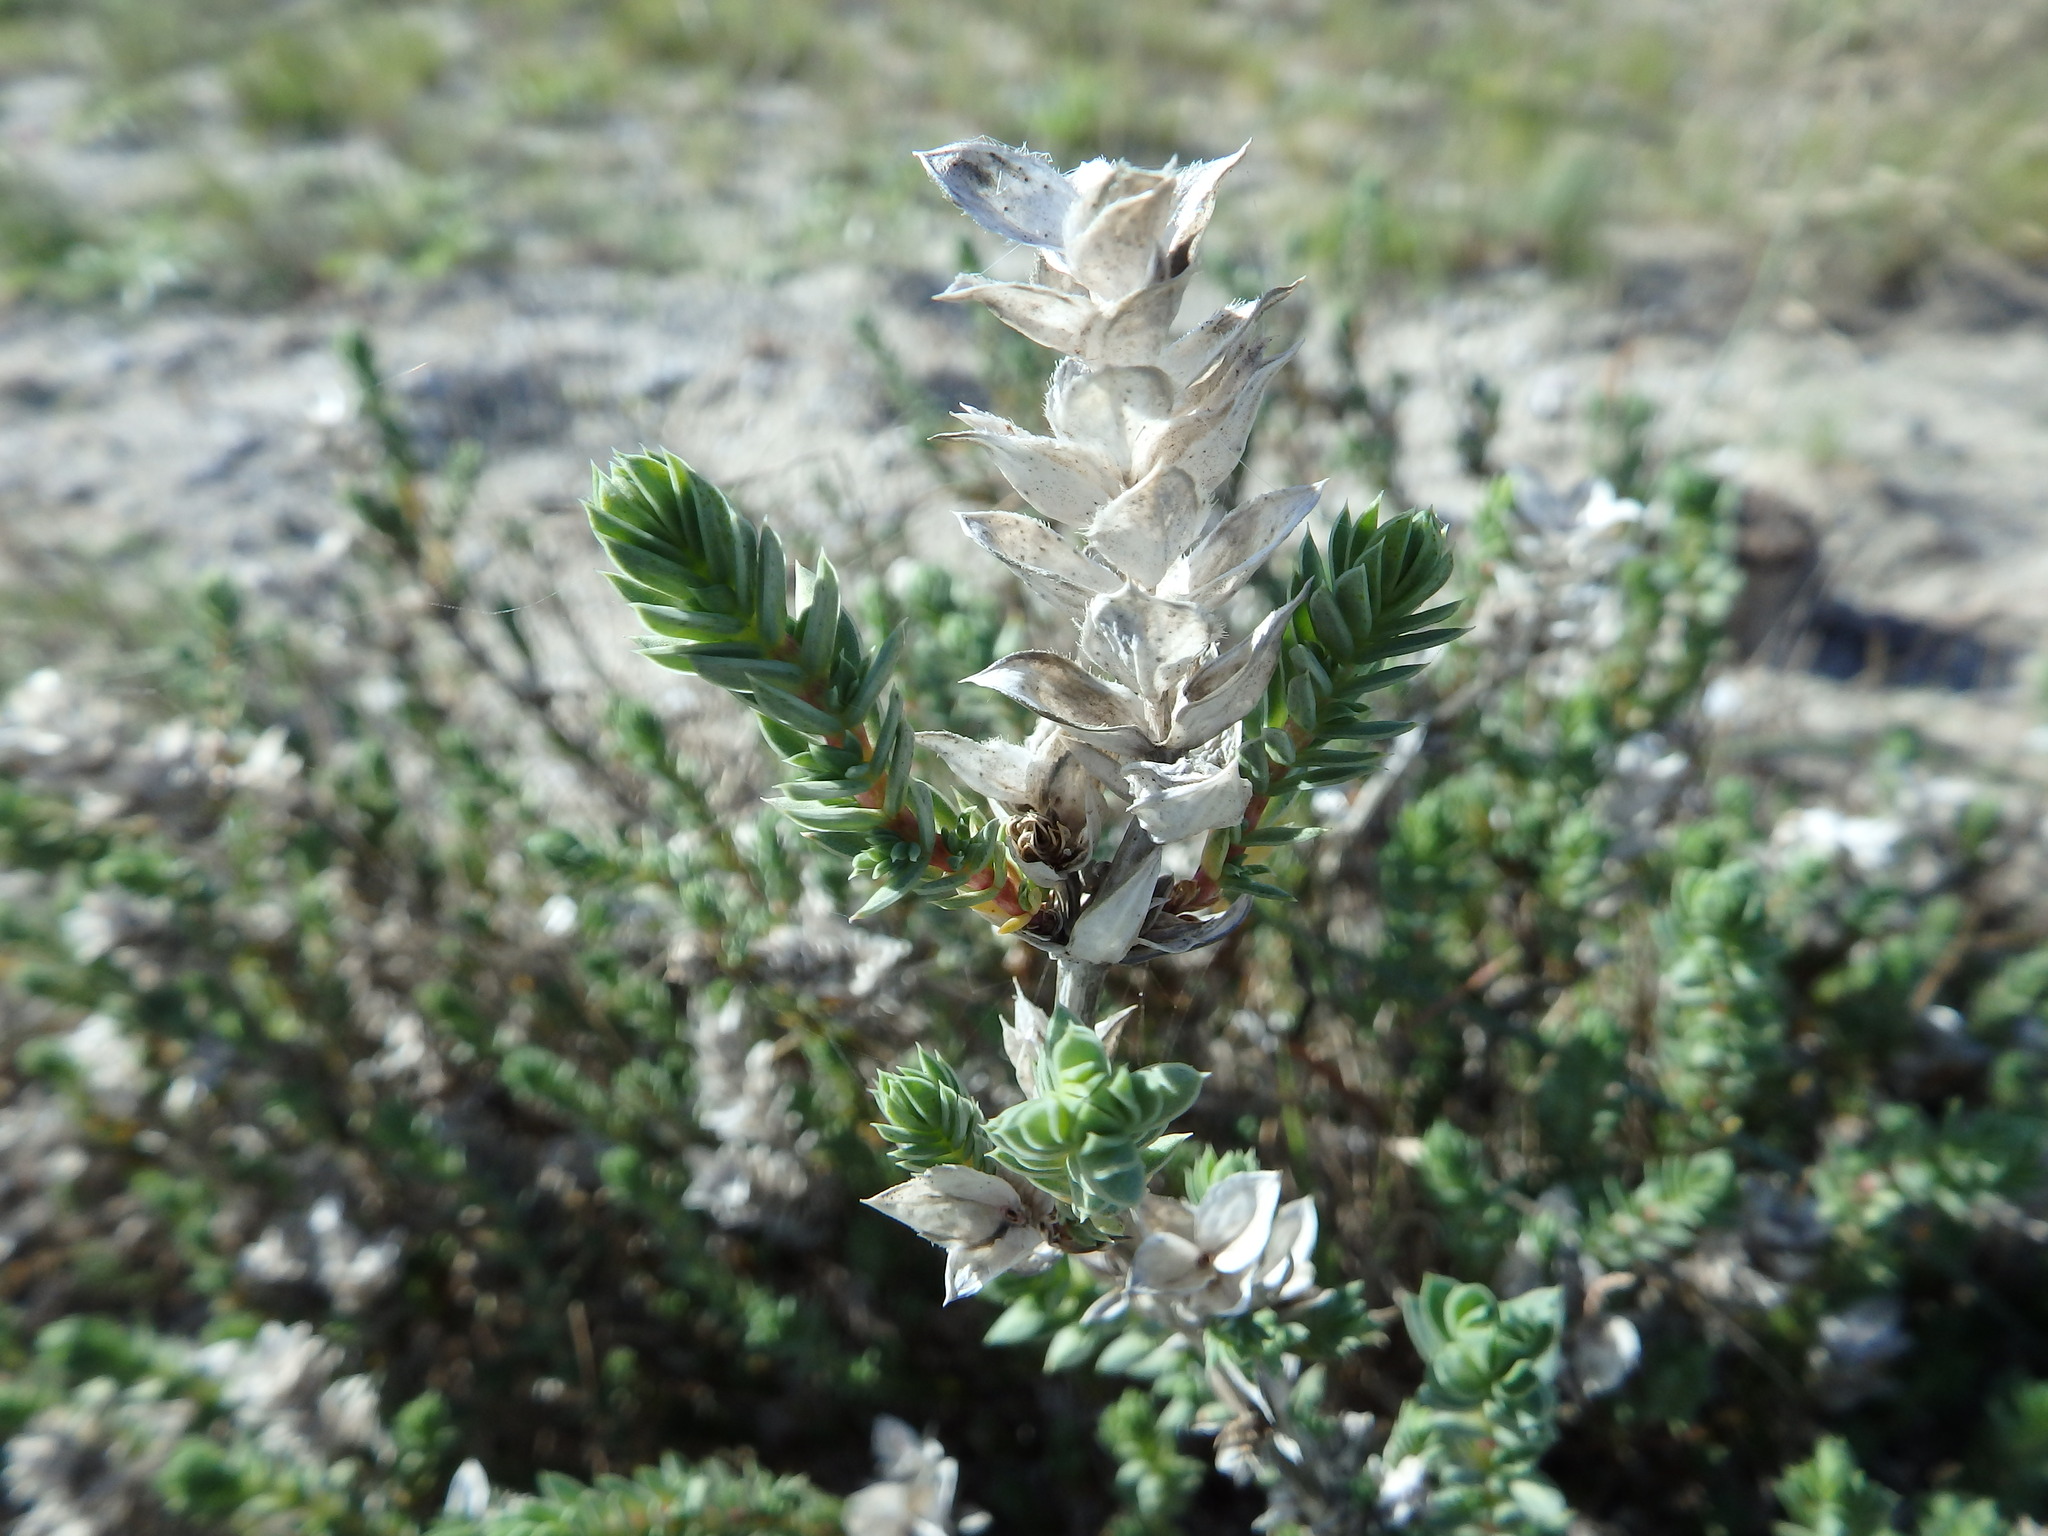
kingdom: Plantae
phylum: Tracheophyta
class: Magnoliopsida
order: Gentianales
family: Rubiaceae
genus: Crucianella
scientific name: Crucianella maritima
